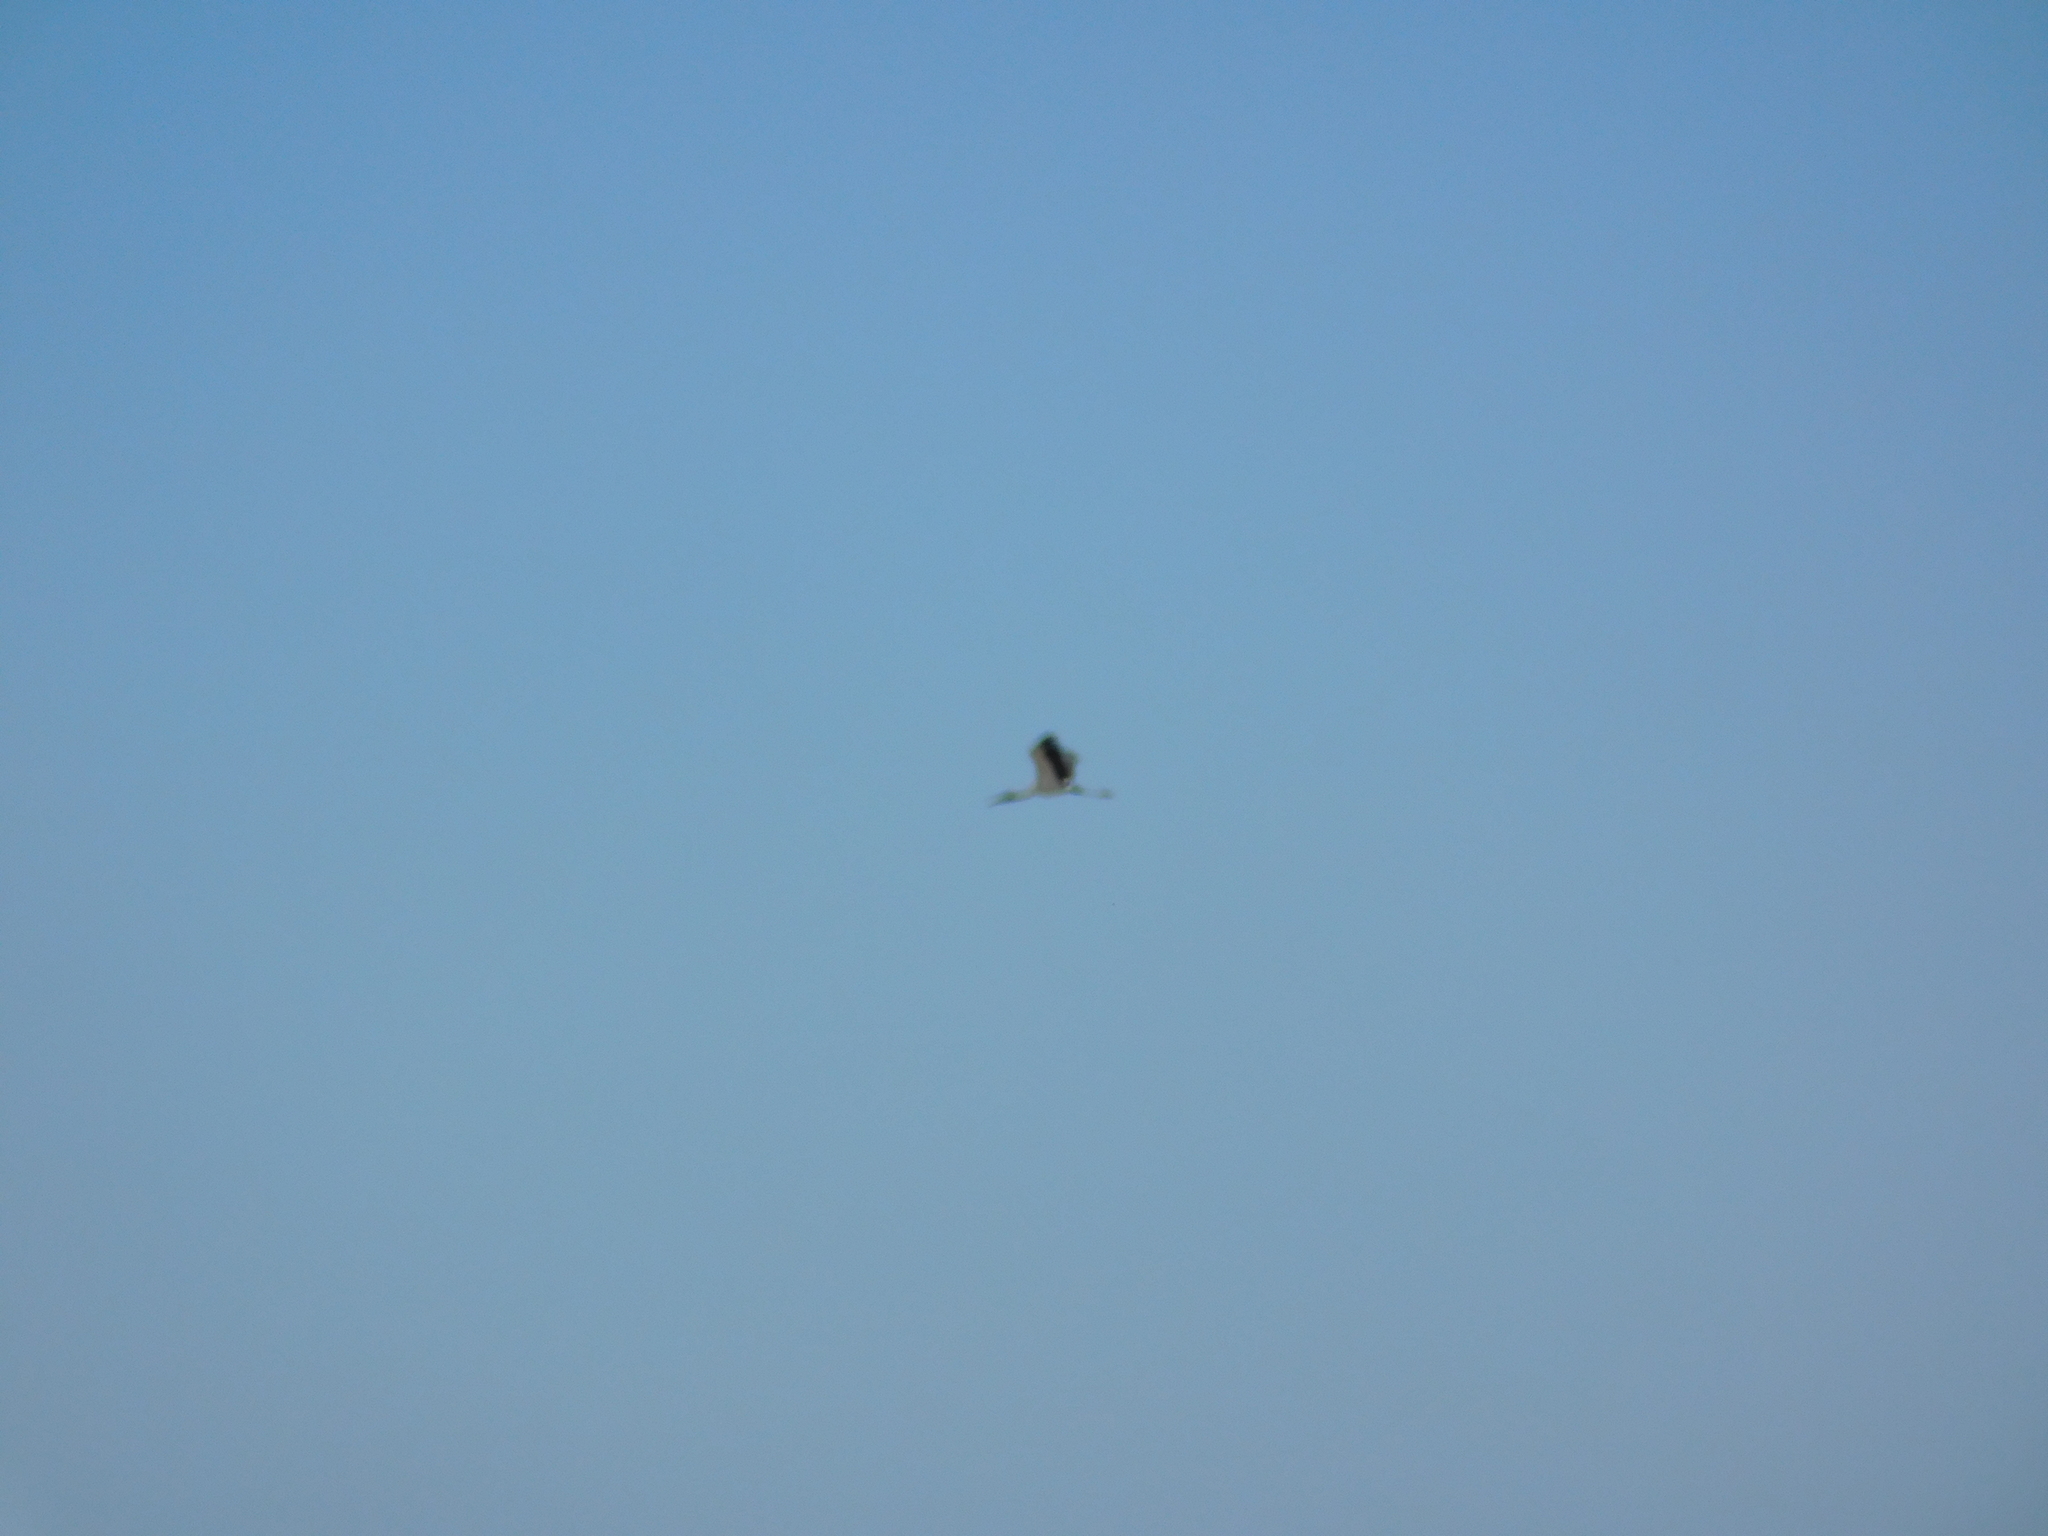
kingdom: Animalia
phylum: Chordata
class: Aves
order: Ciconiiformes
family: Ciconiidae
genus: Ciconia
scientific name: Ciconia maguari
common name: Maguari stork
